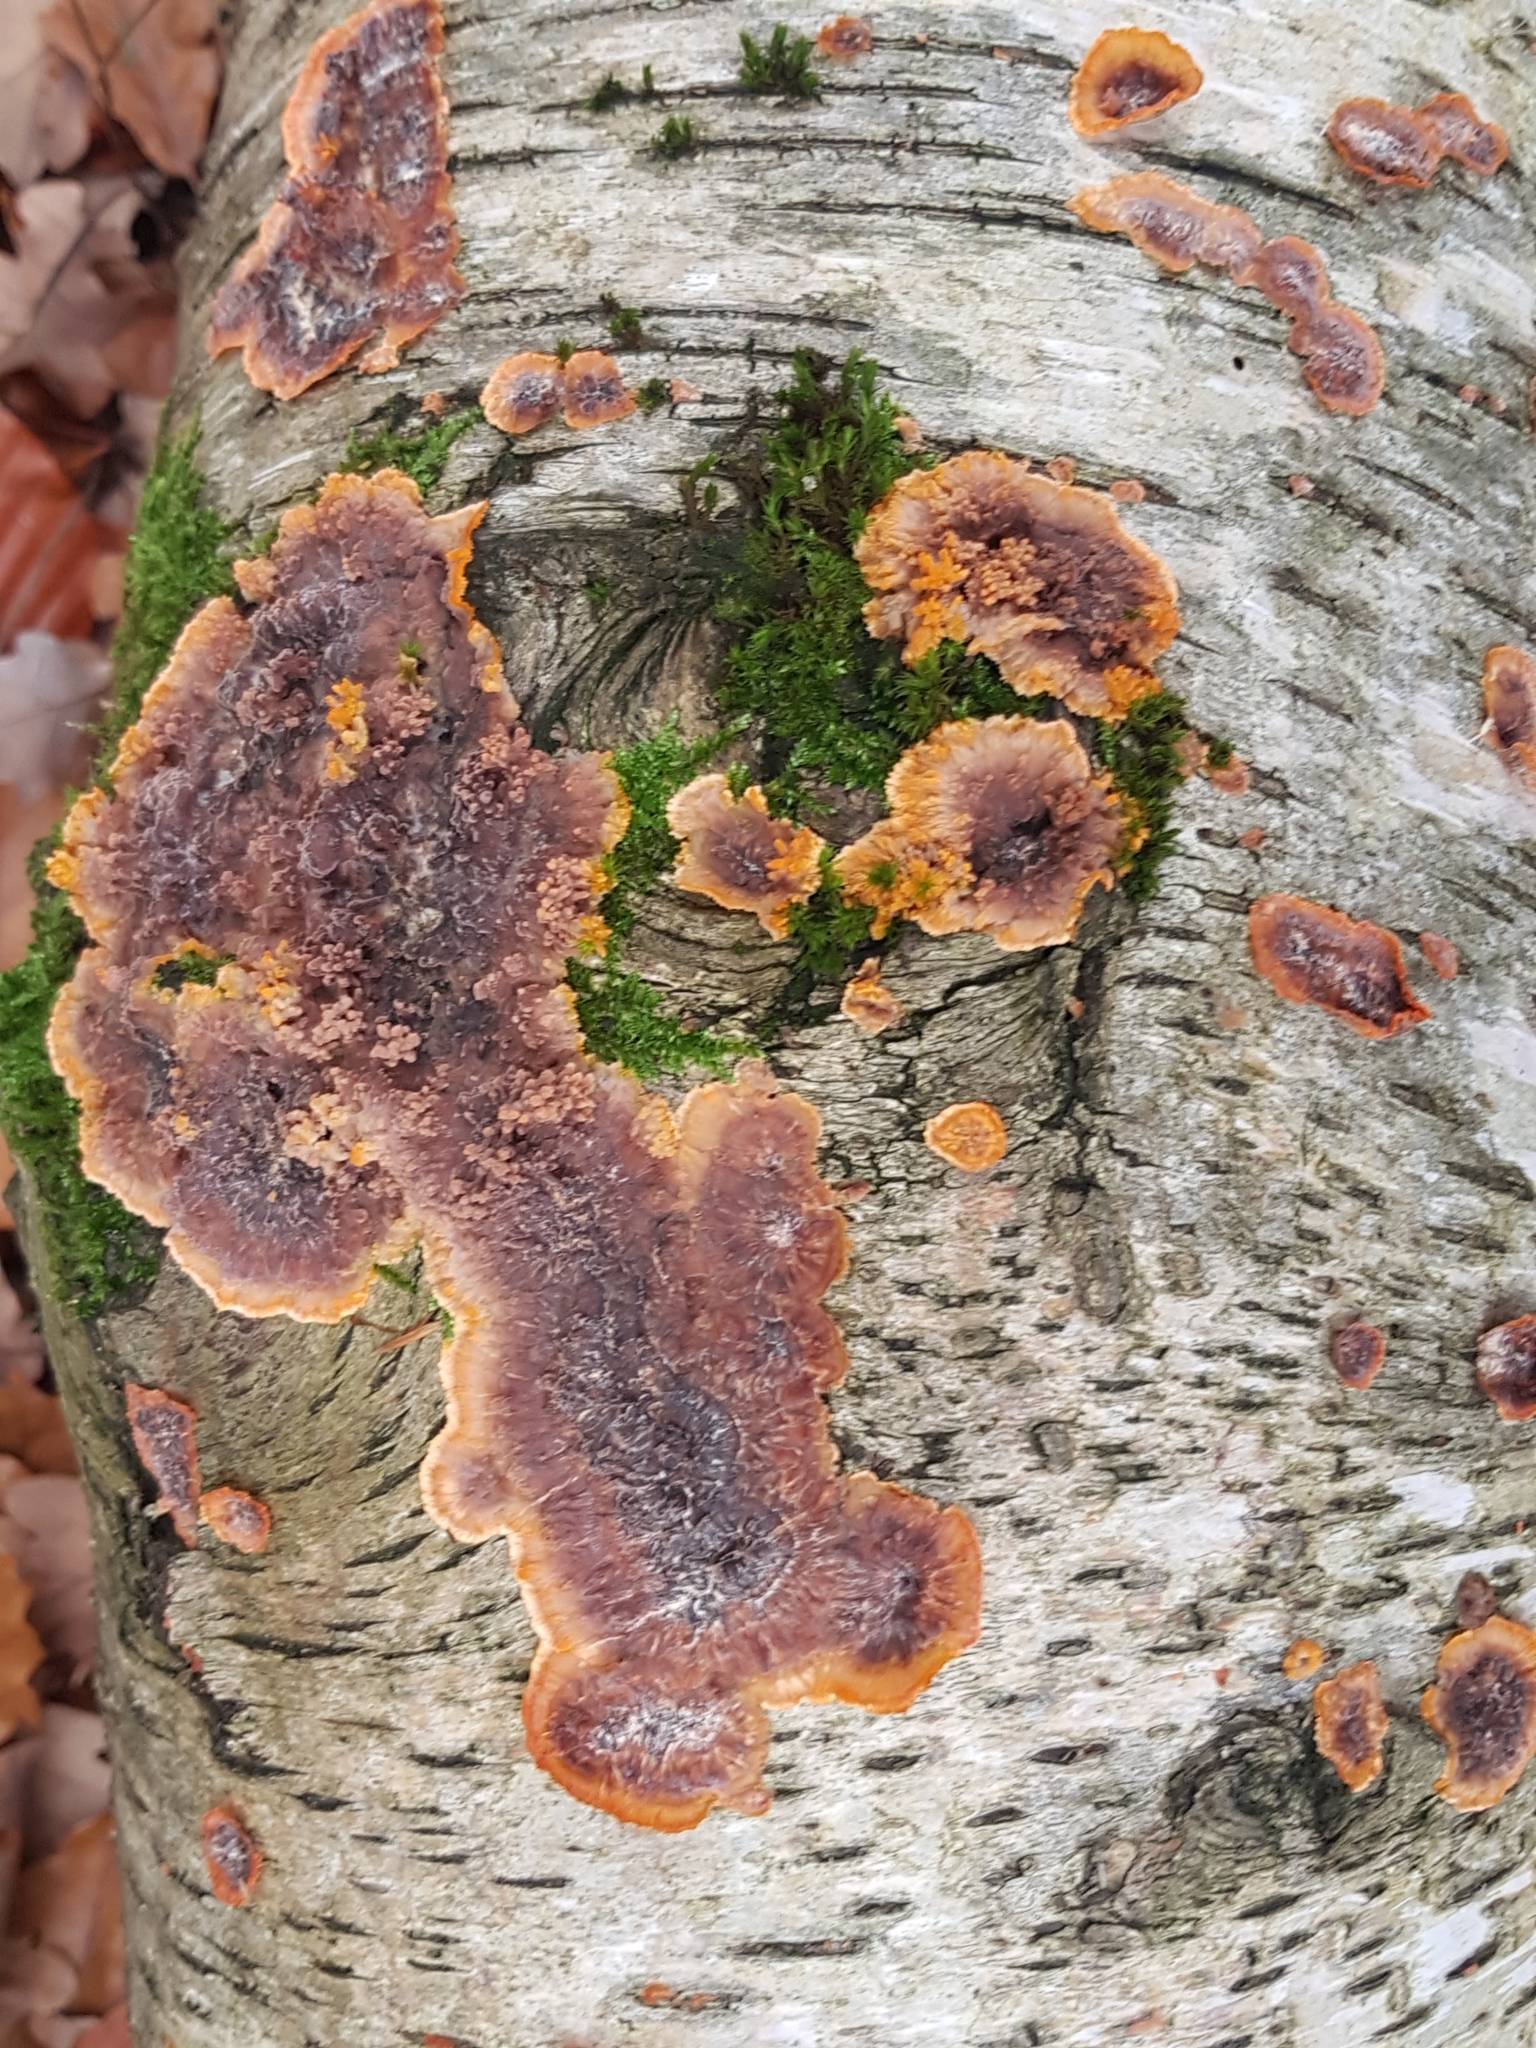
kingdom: Fungi
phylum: Basidiomycota
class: Agaricomycetes
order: Polyporales
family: Meruliaceae
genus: Phlebia
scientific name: Phlebia radiata
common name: Wrinkled crust
